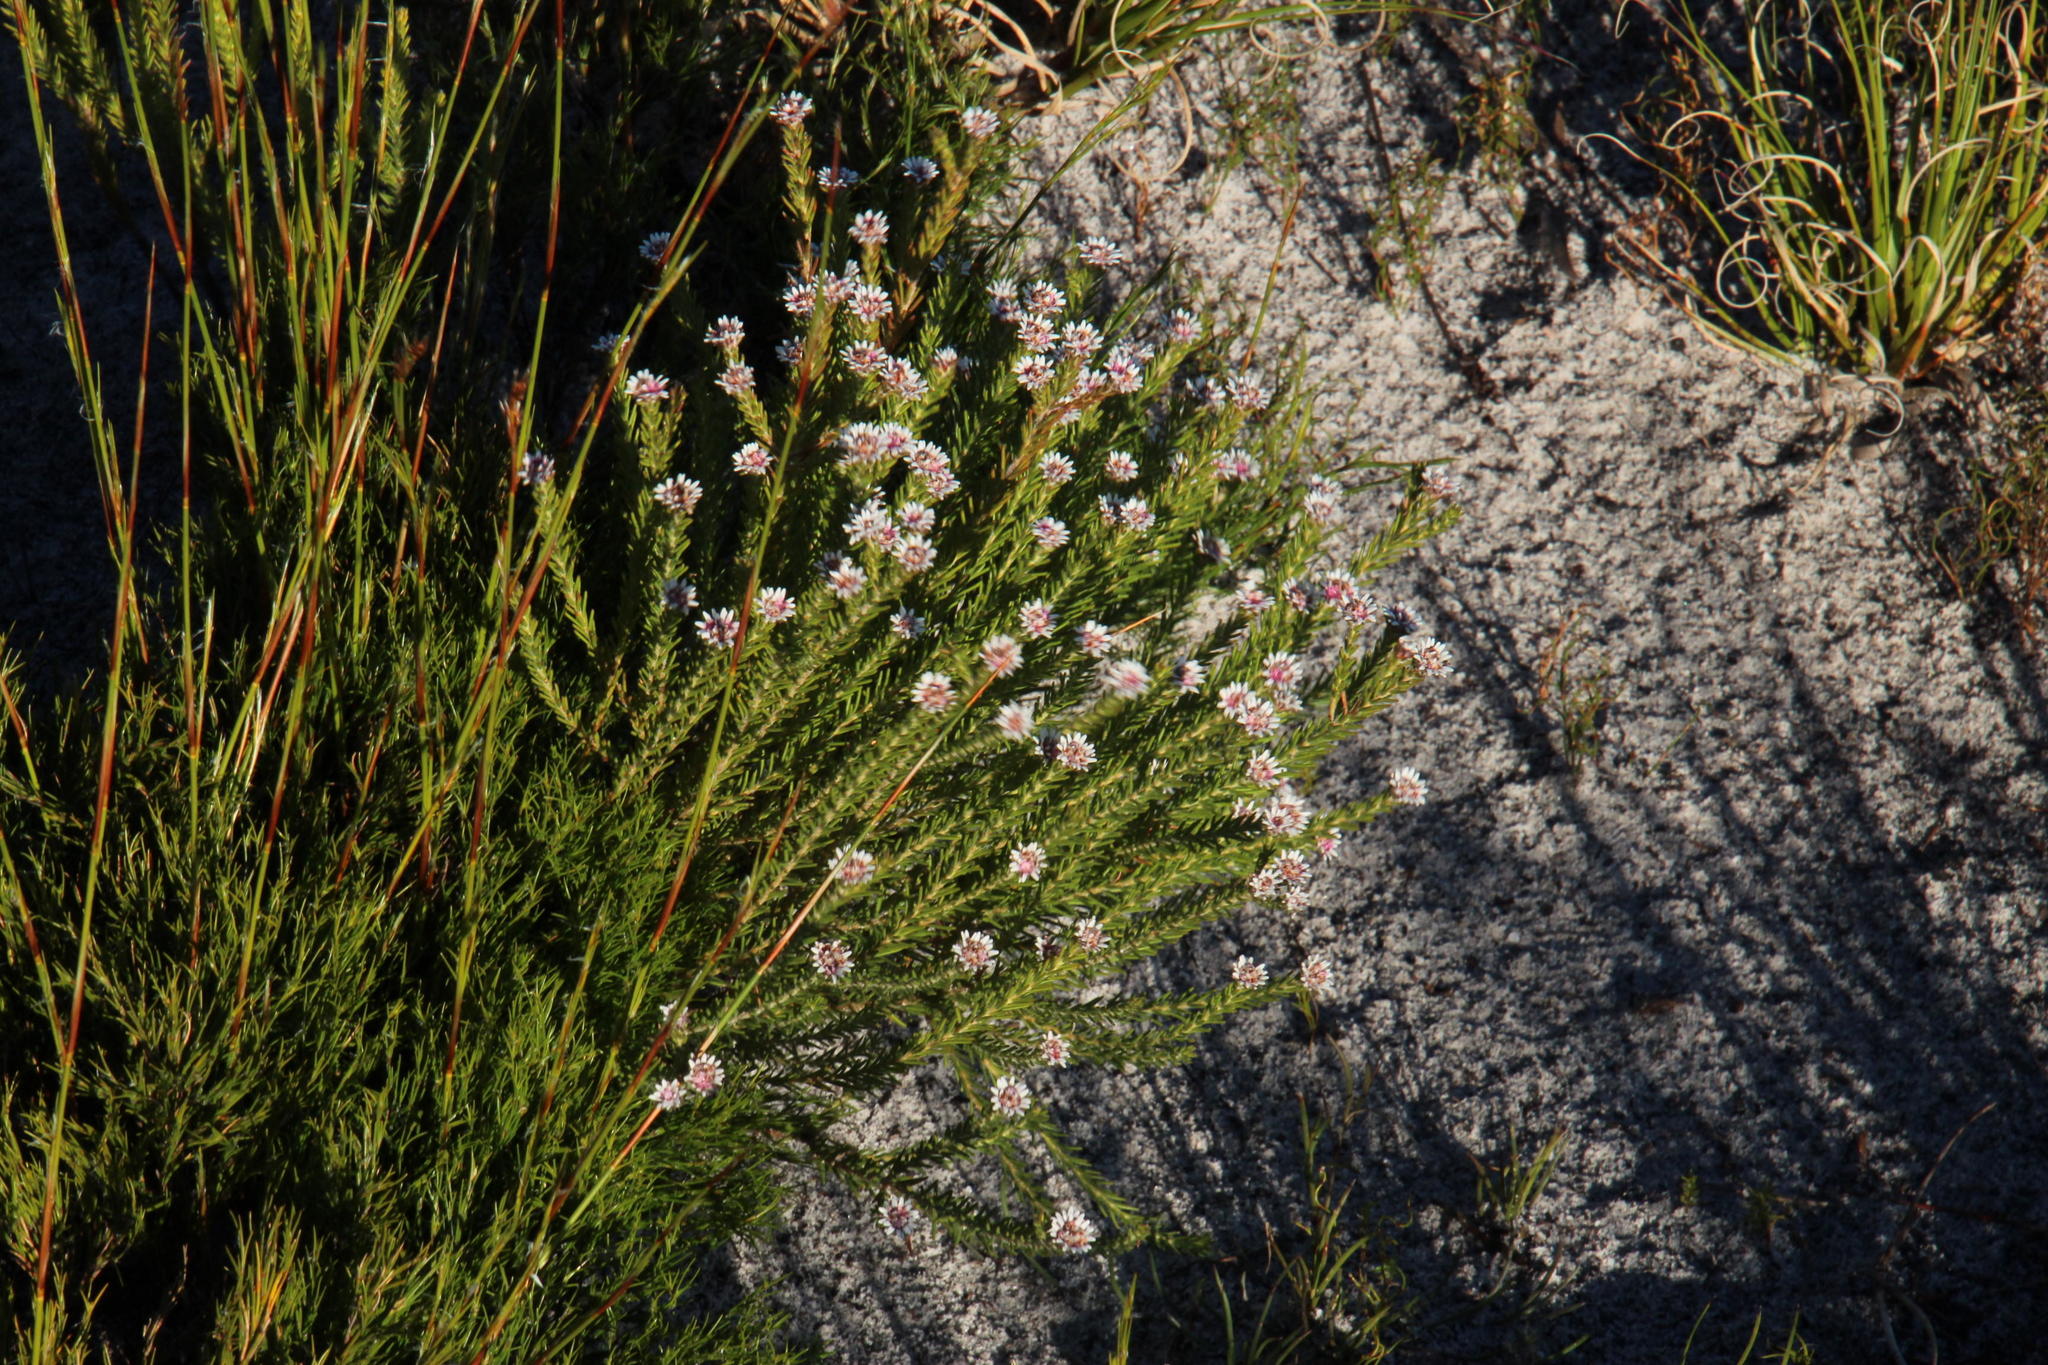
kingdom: Plantae
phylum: Tracheophyta
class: Magnoliopsida
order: Bruniales
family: Bruniaceae
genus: Staavia
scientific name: Staavia radiata
